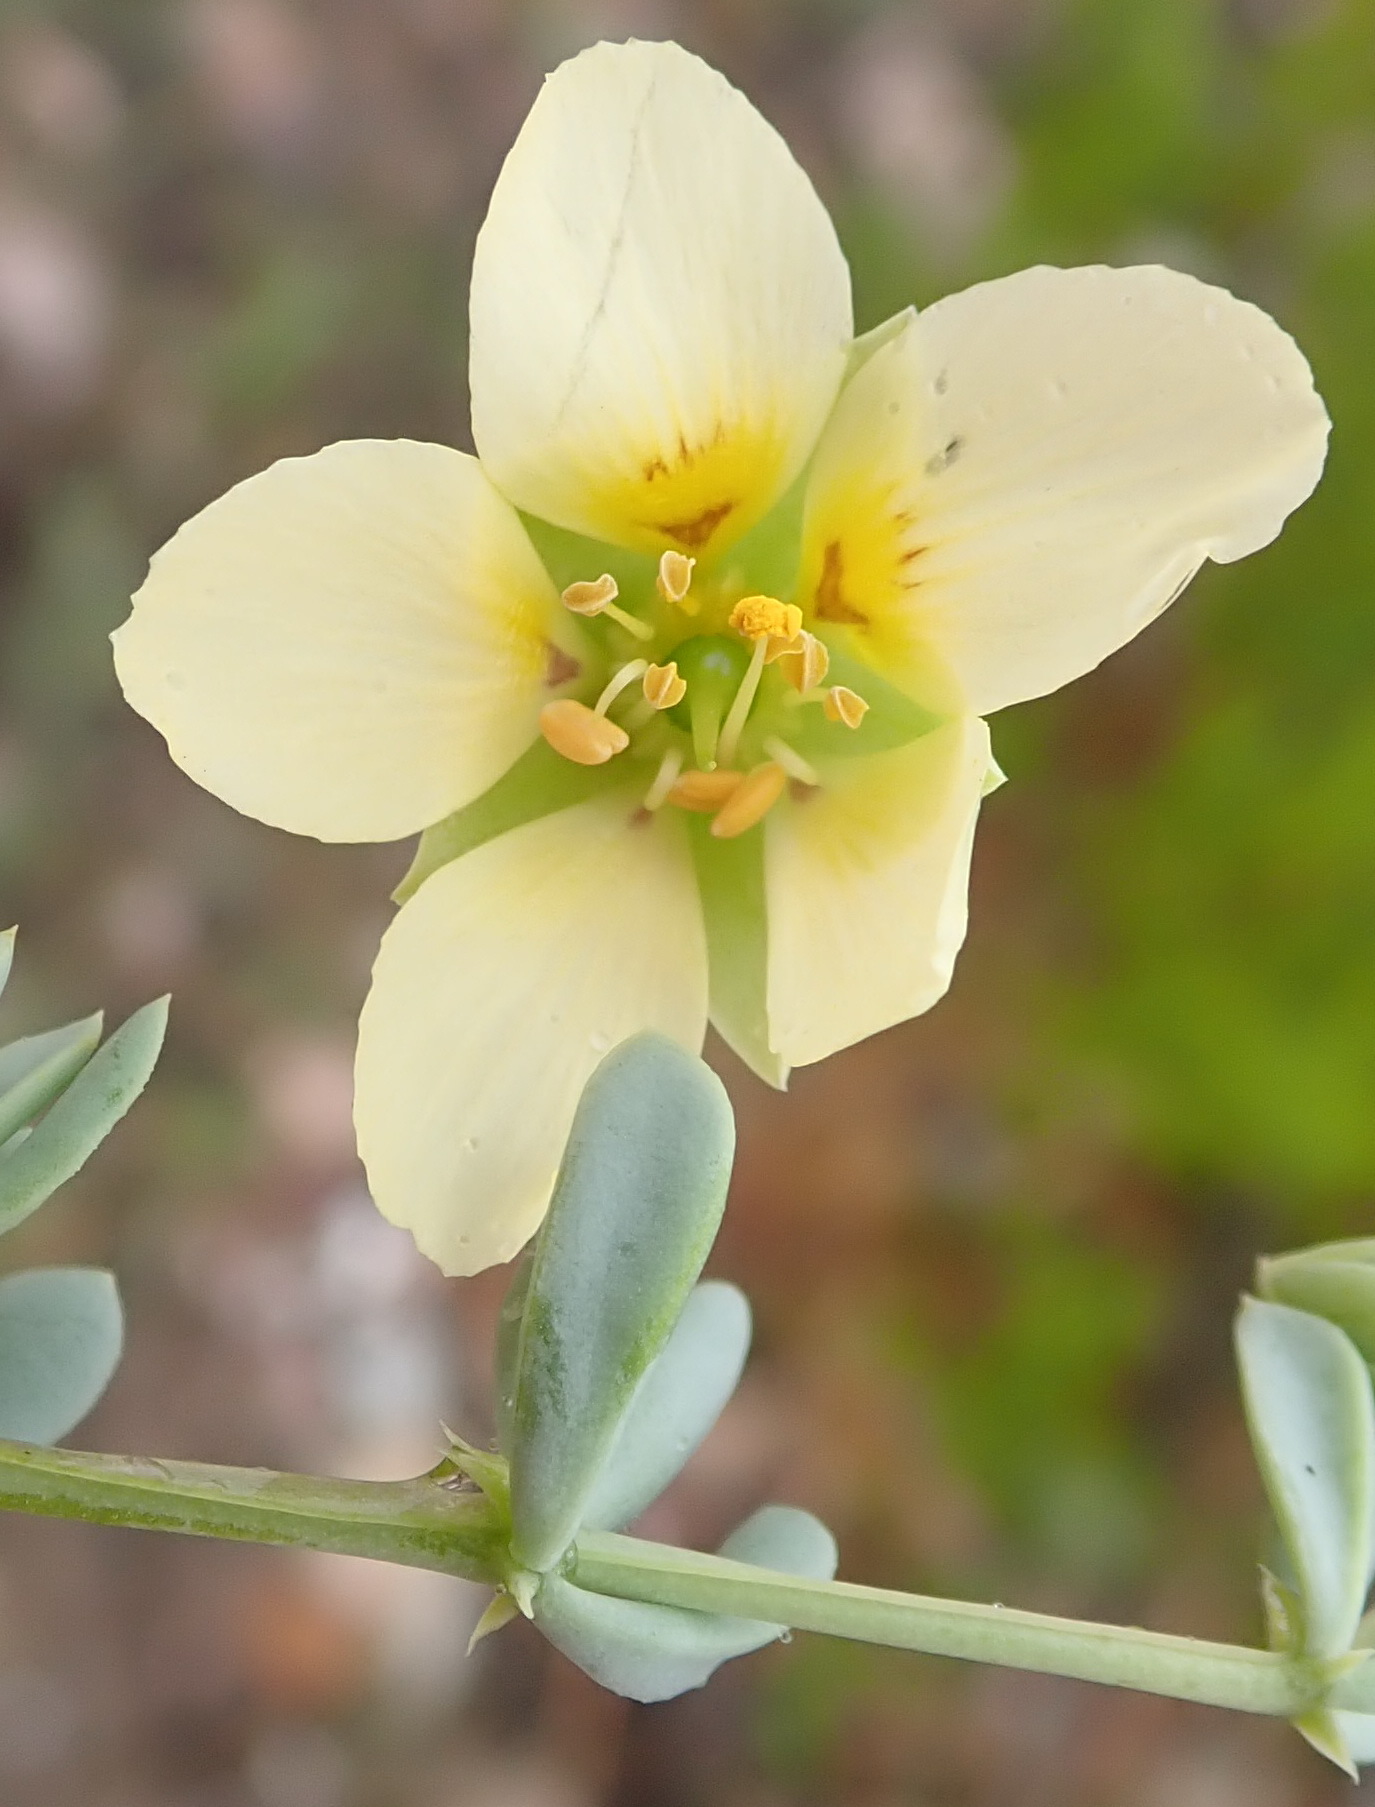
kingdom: Plantae
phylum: Tracheophyta
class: Magnoliopsida
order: Zygophyllales
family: Zygophyllaceae
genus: Roepera
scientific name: Roepera fulva
